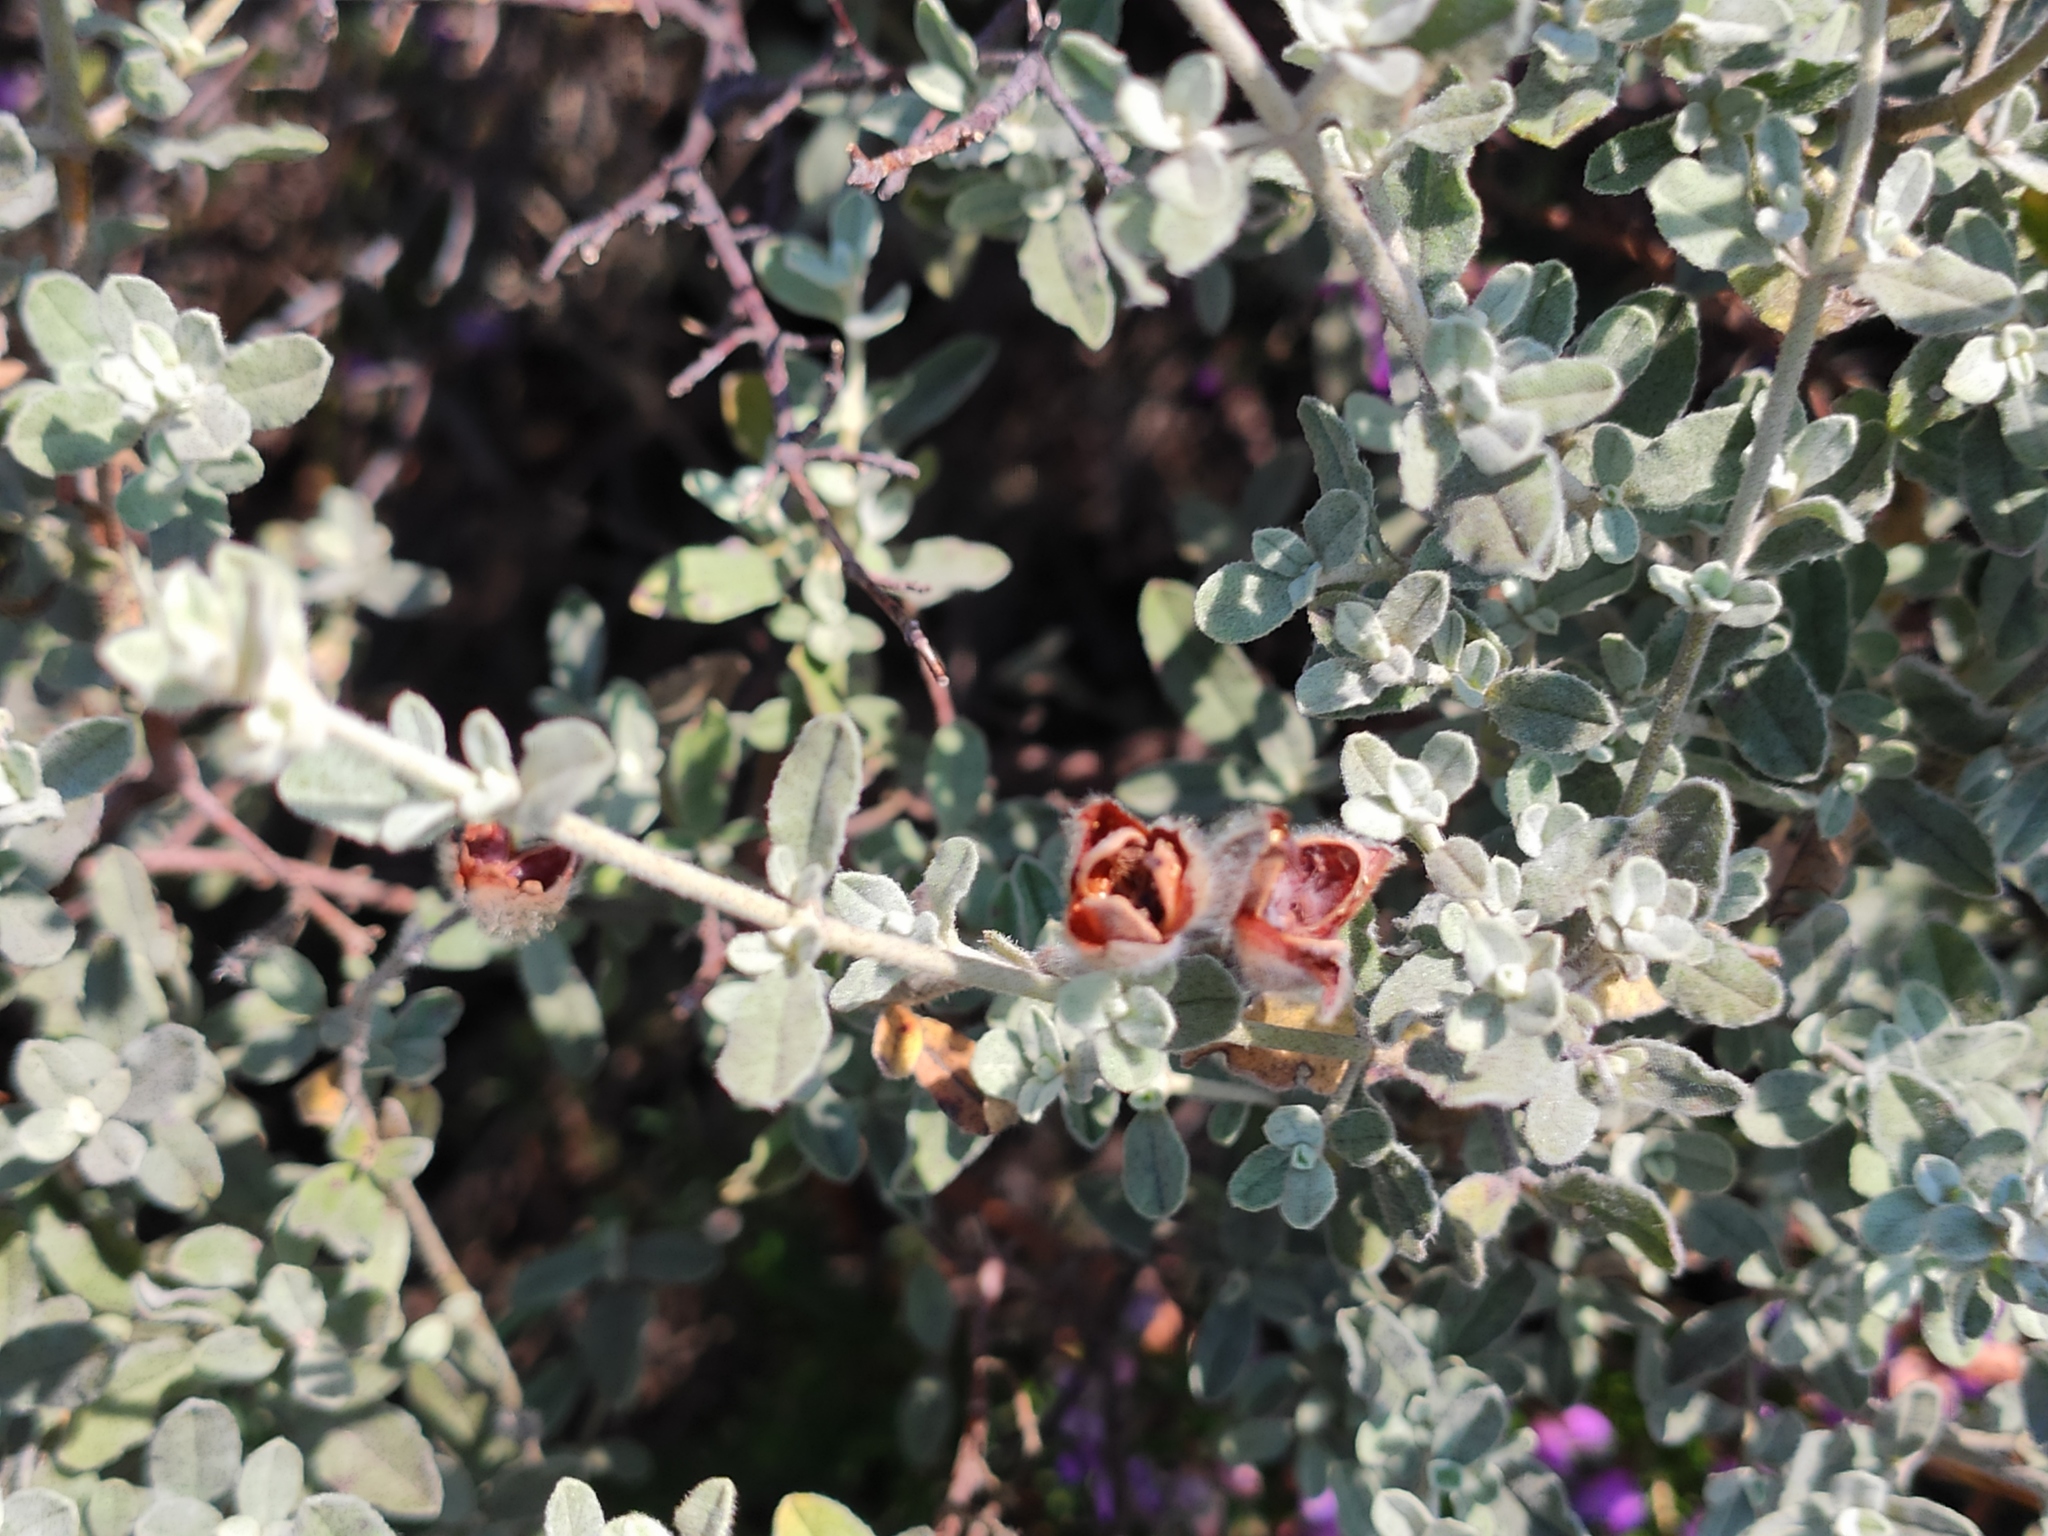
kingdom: Plantae
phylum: Tracheophyta
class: Magnoliopsida
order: Malvales
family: Cistaceae
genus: Halimium
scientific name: Halimium lasianthum
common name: Lisbon false sun-rose
